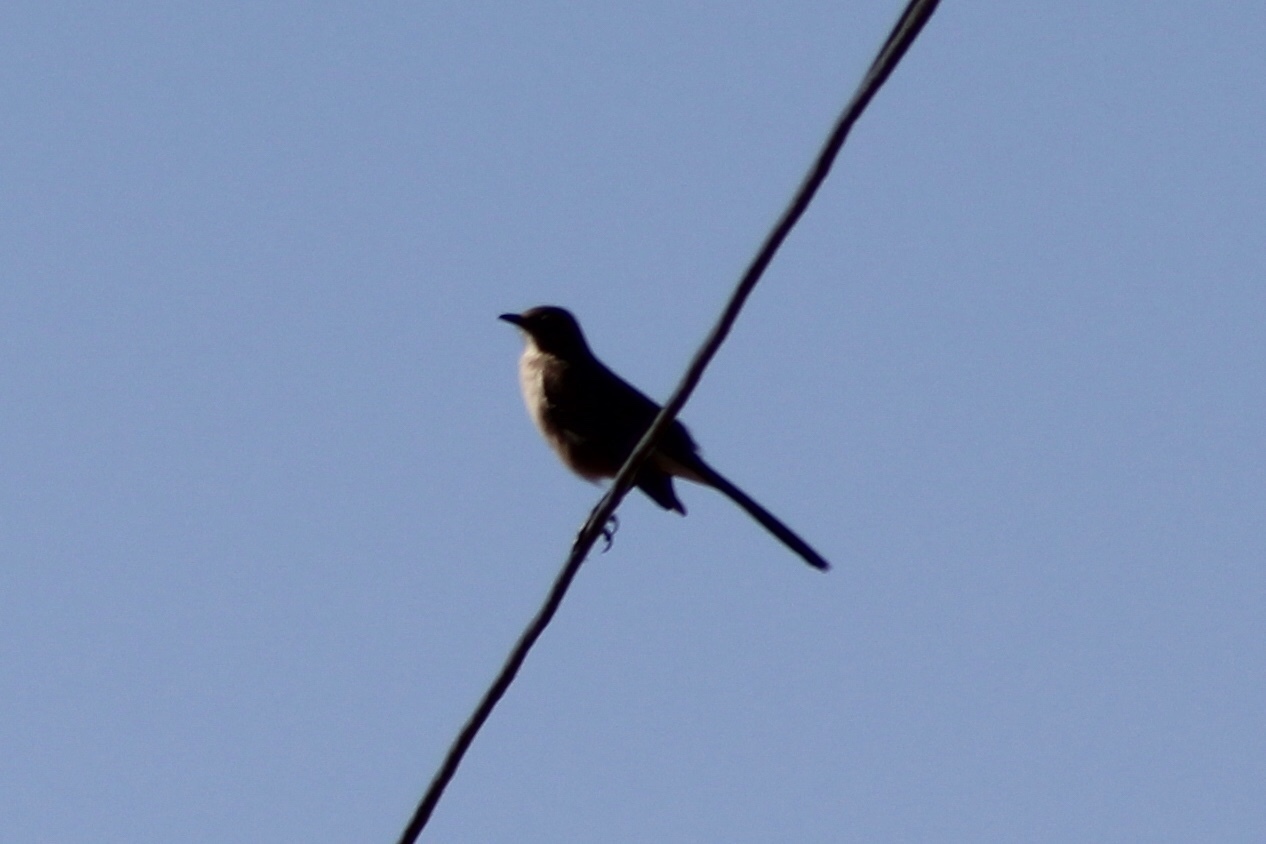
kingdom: Animalia
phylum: Chordata
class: Aves
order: Passeriformes
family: Mimidae
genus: Mimus
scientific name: Mimus polyglottos
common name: Northern mockingbird
